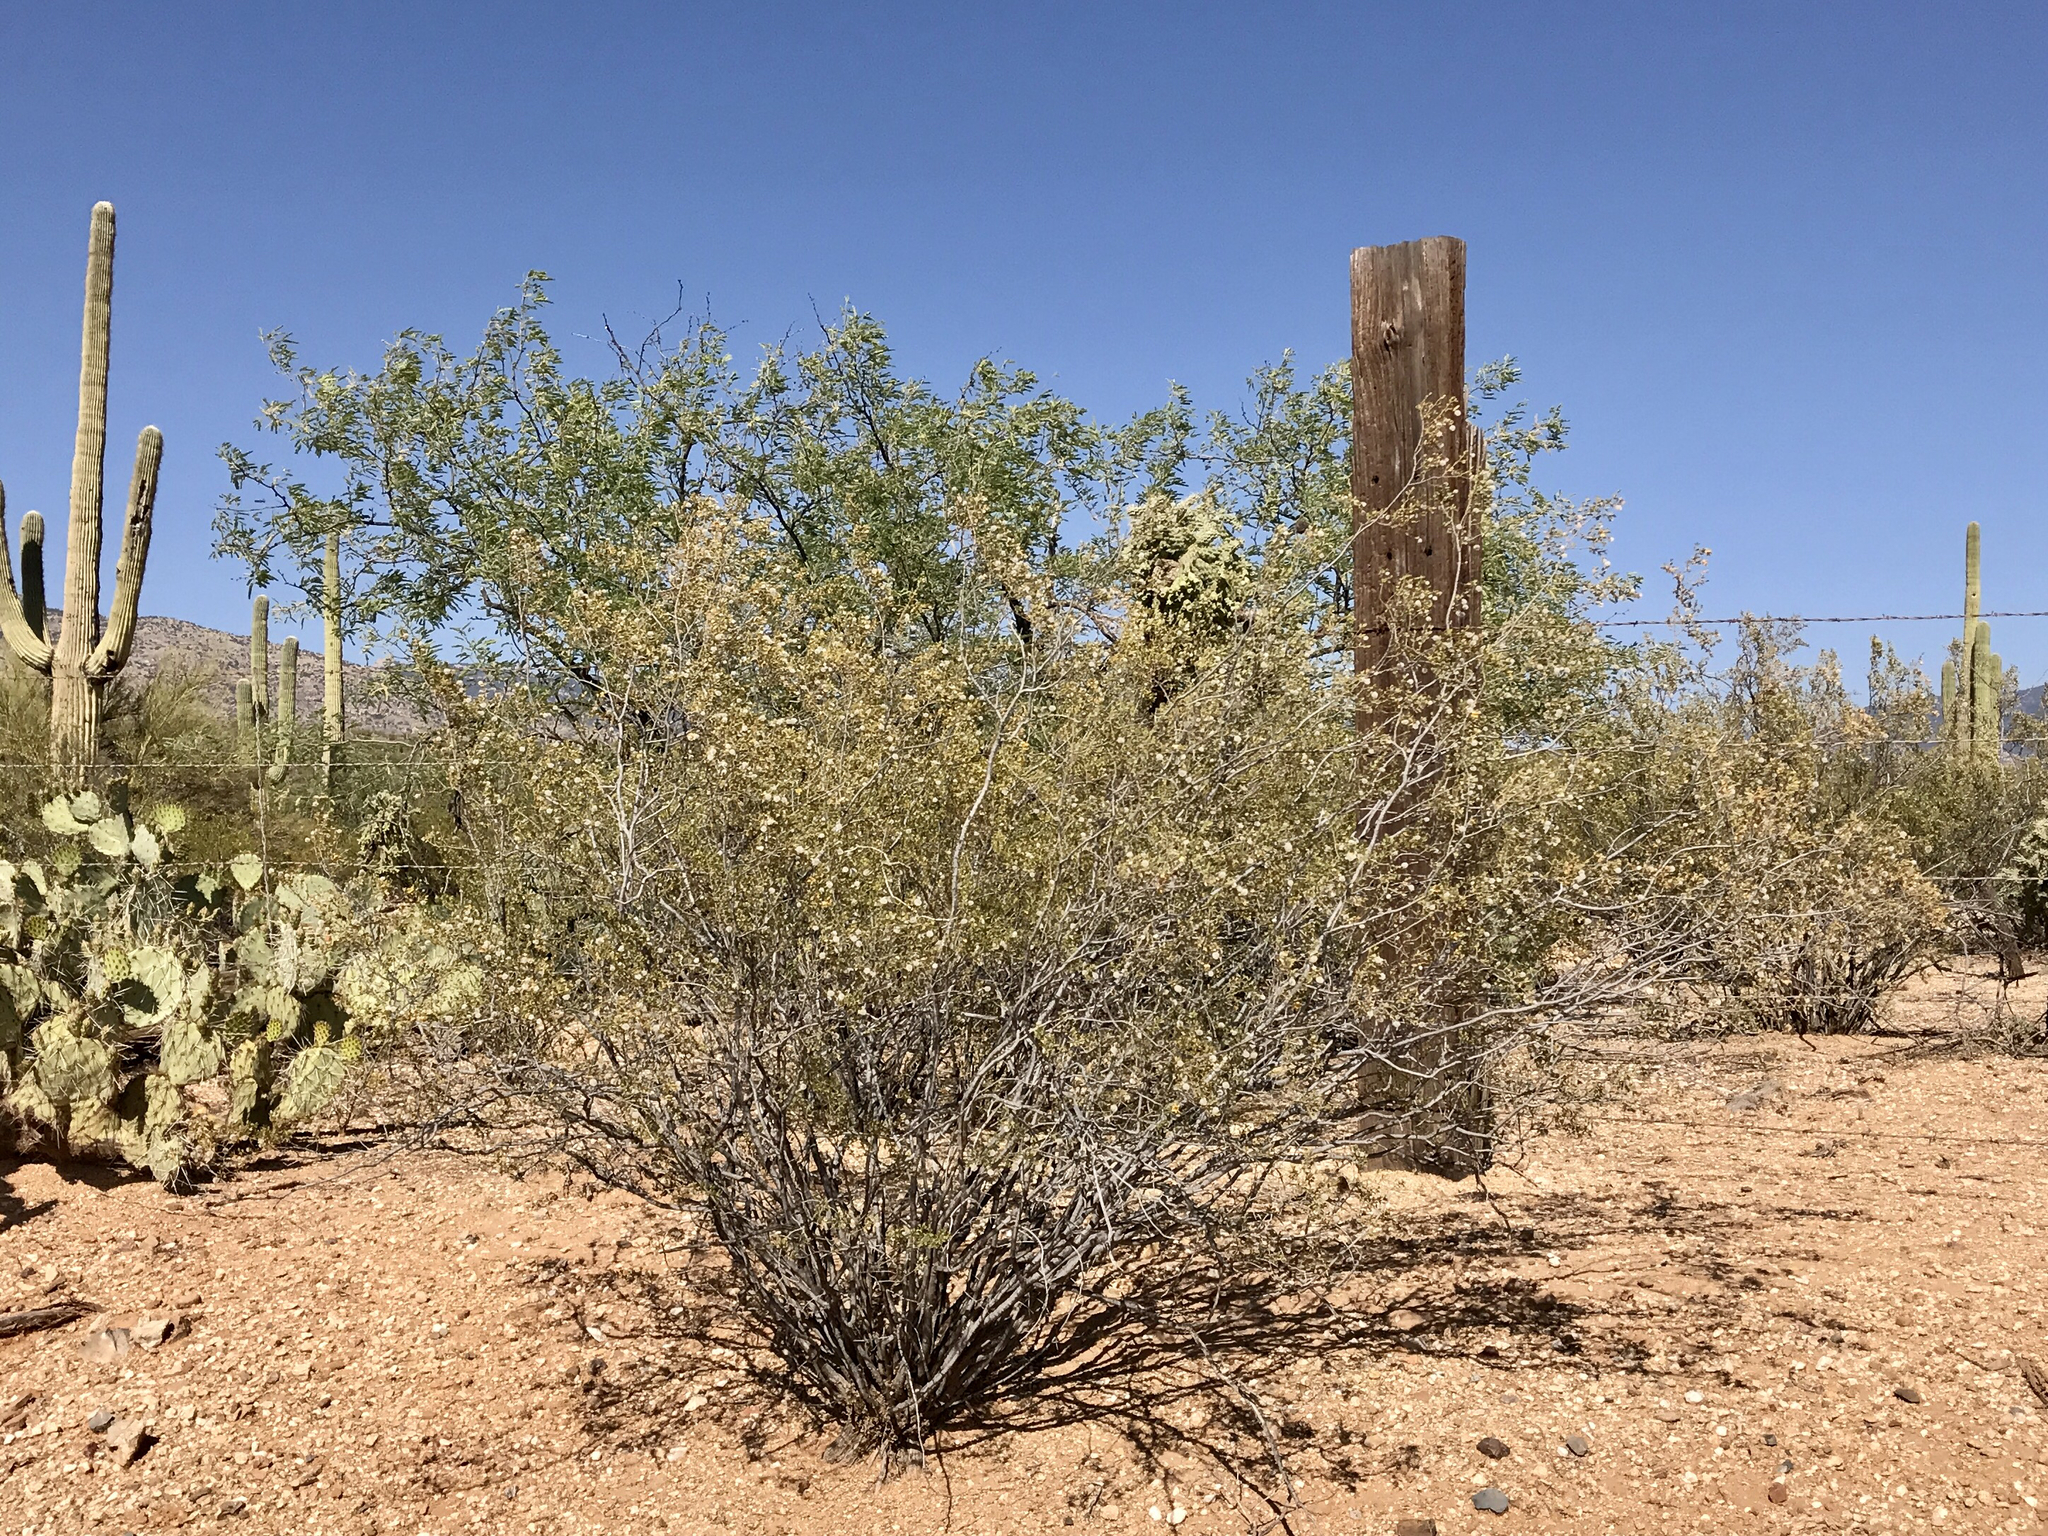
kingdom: Plantae
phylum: Tracheophyta
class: Magnoliopsida
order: Zygophyllales
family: Zygophyllaceae
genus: Larrea
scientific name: Larrea tridentata
